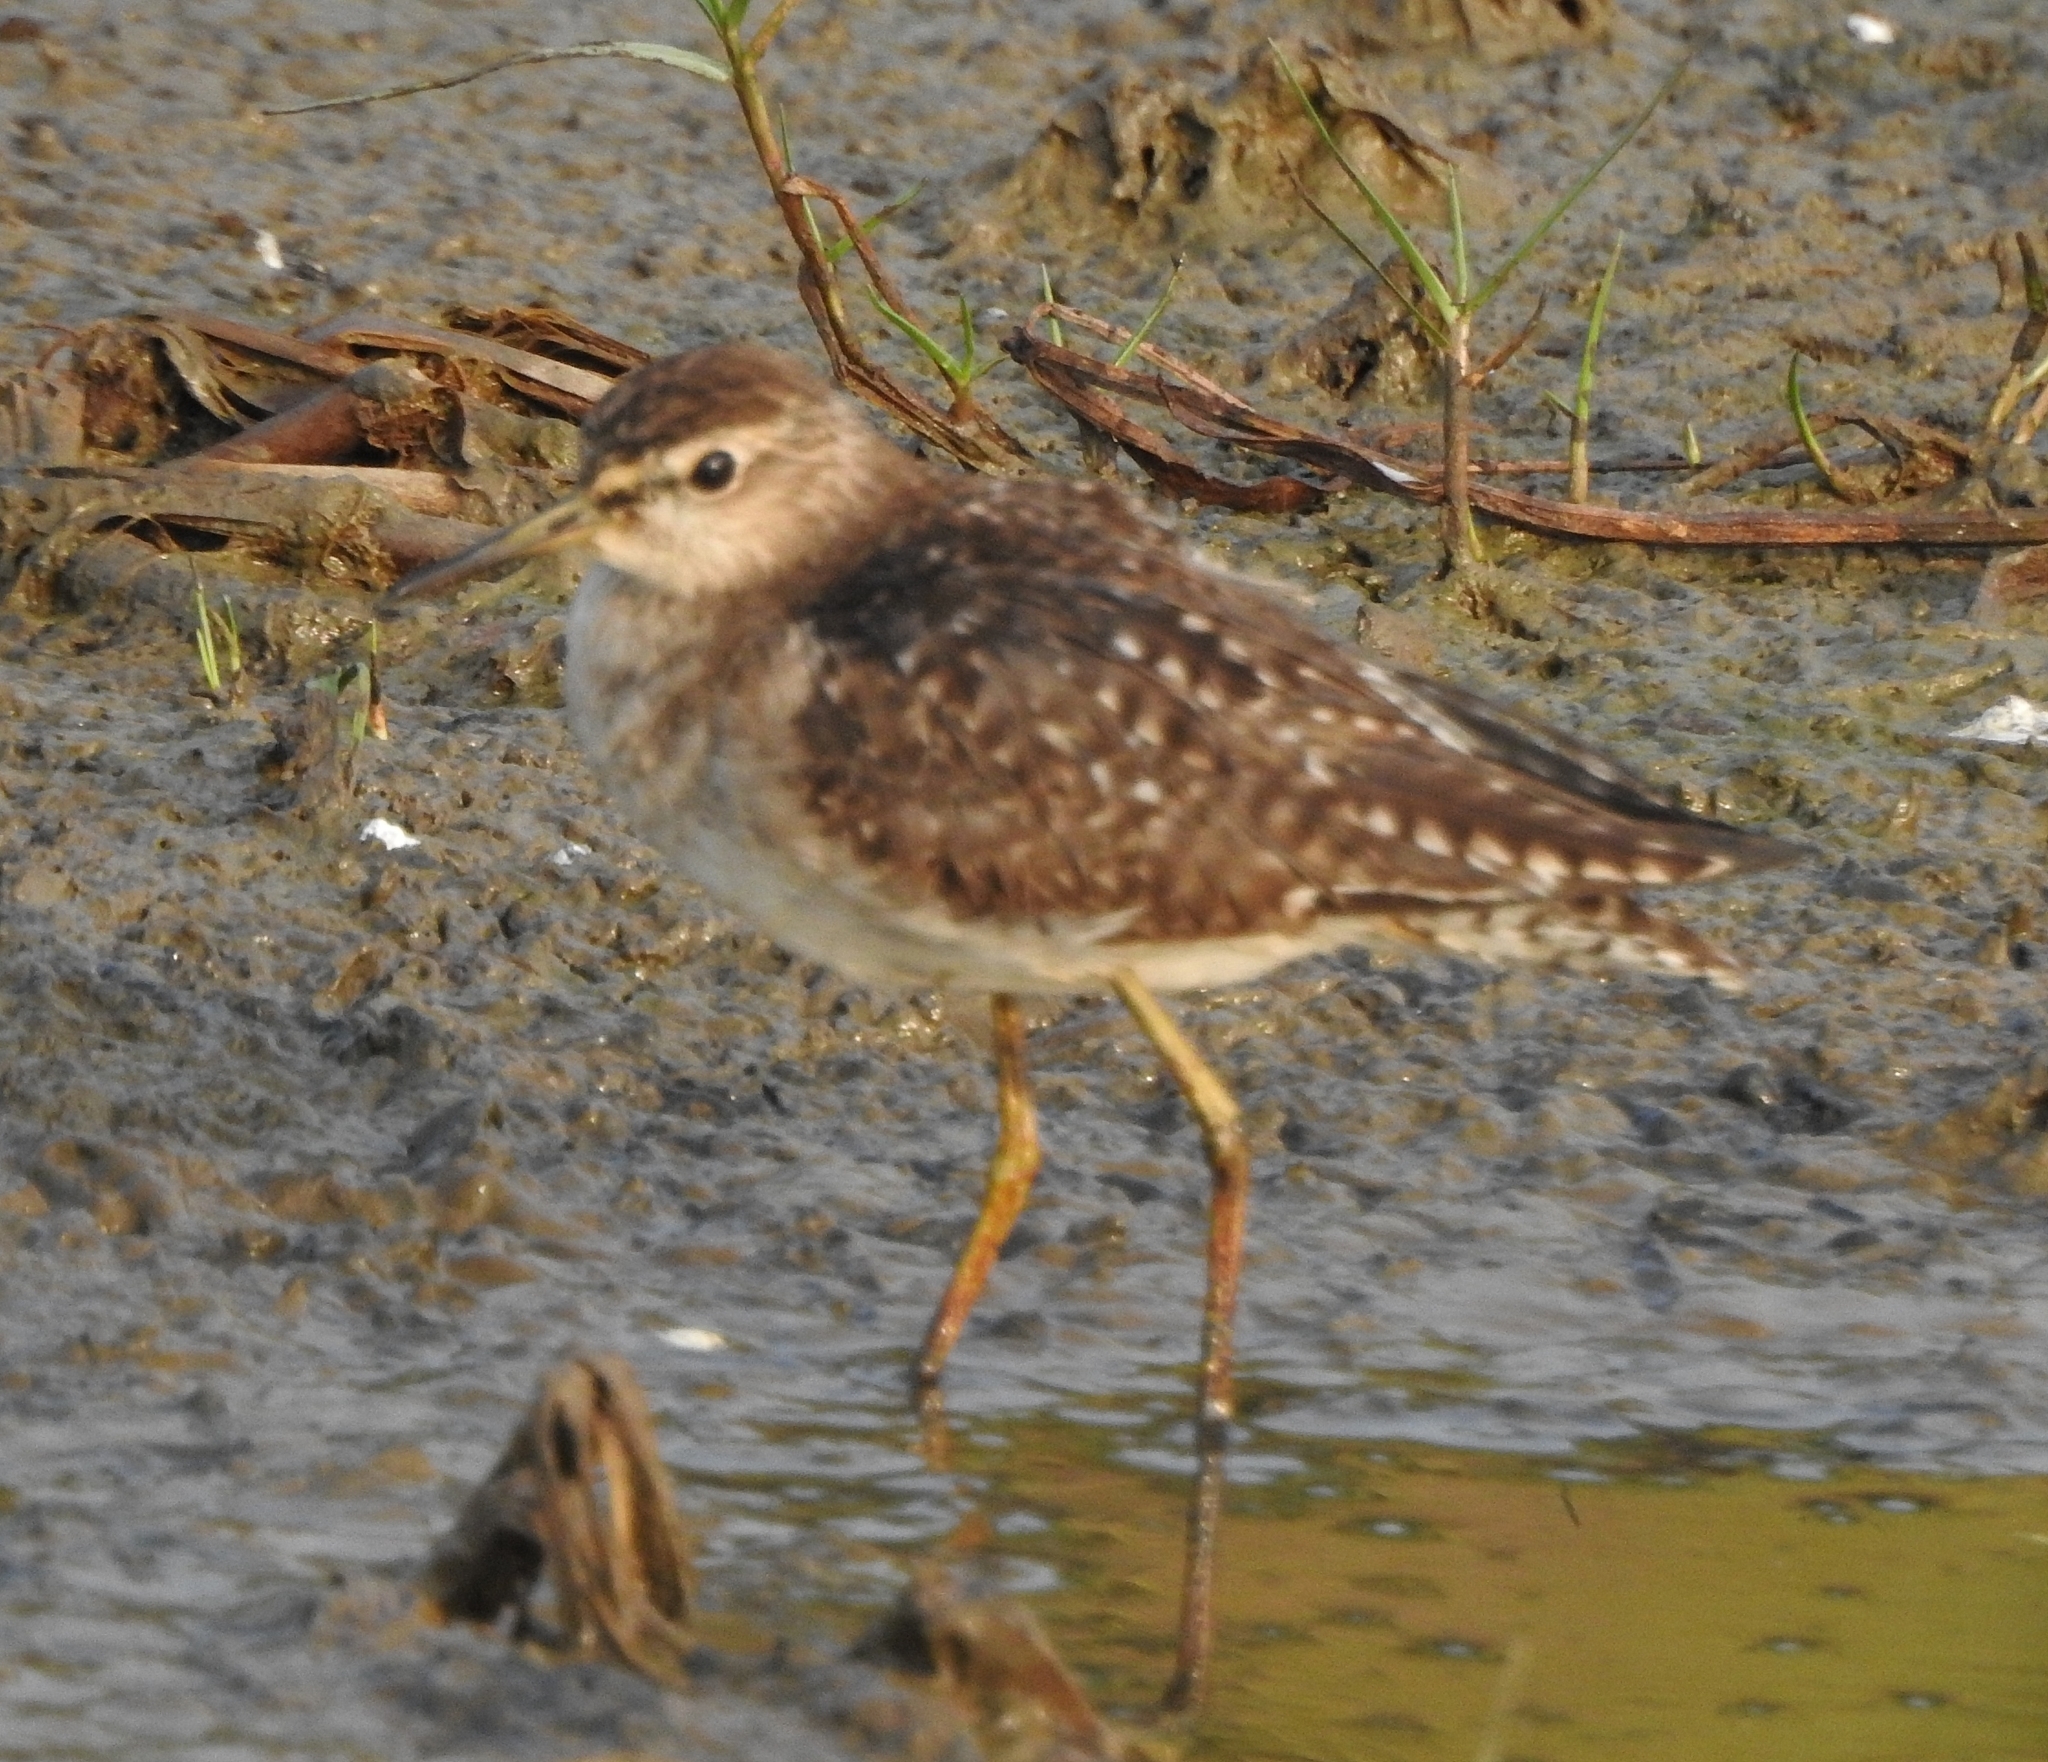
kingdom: Animalia
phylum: Chordata
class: Aves
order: Charadriiformes
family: Scolopacidae
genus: Tringa
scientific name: Tringa glareola
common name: Wood sandpiper
